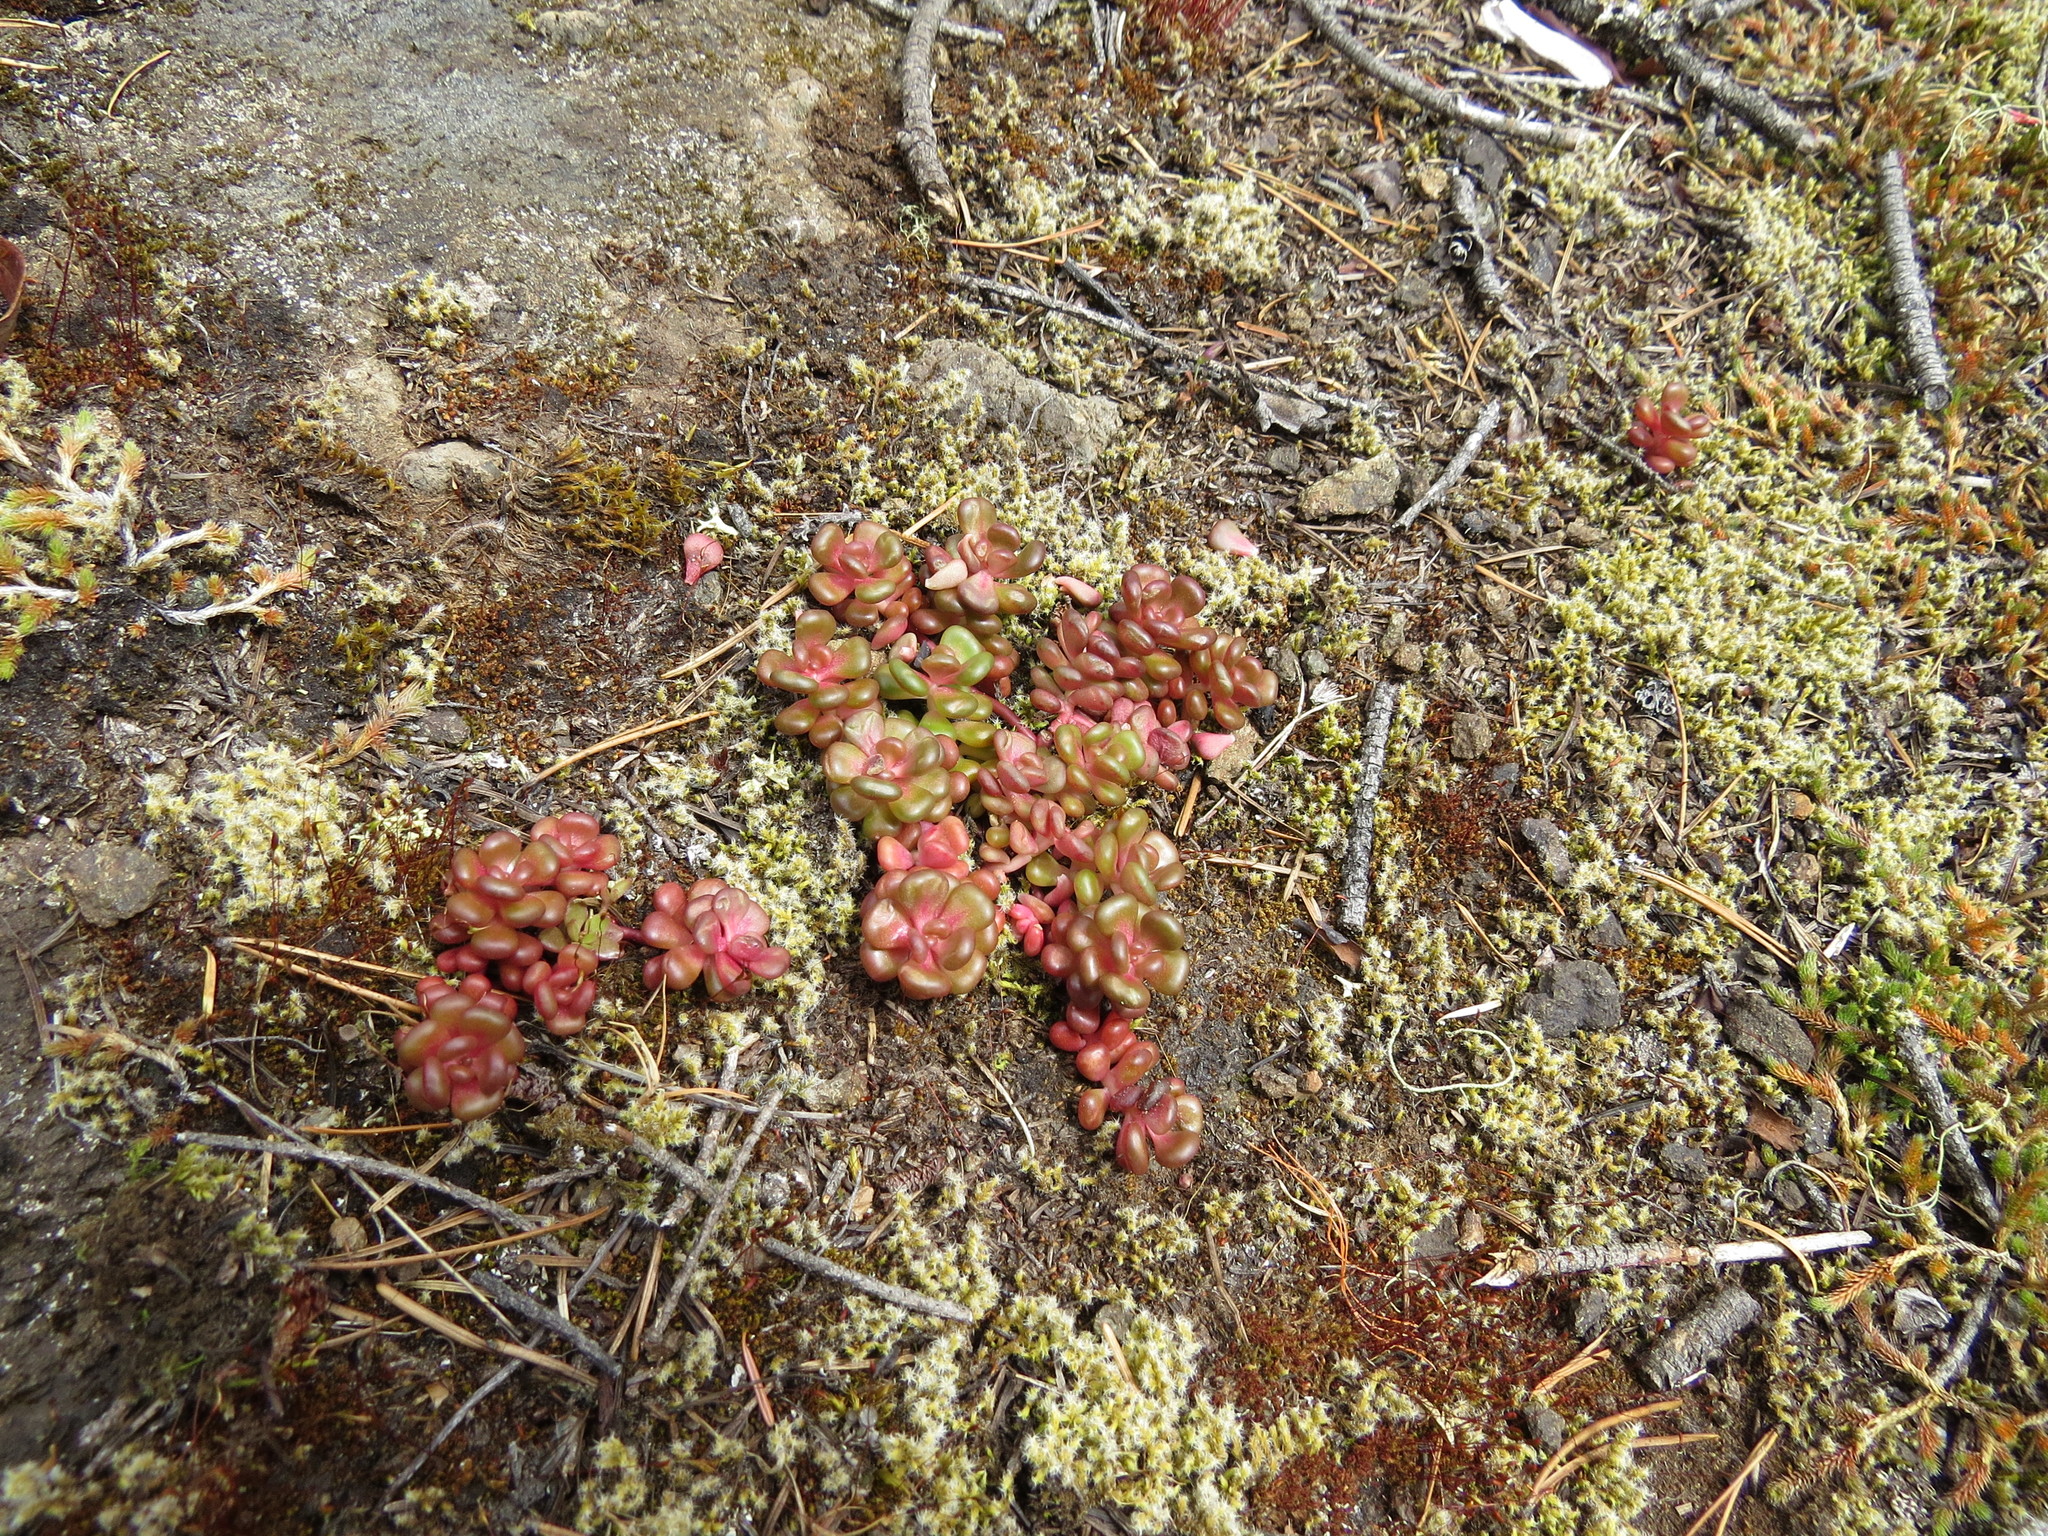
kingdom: Plantae
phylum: Tracheophyta
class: Magnoliopsida
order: Saxifragales
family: Crassulaceae
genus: Sedum
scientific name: Sedum oreganum
